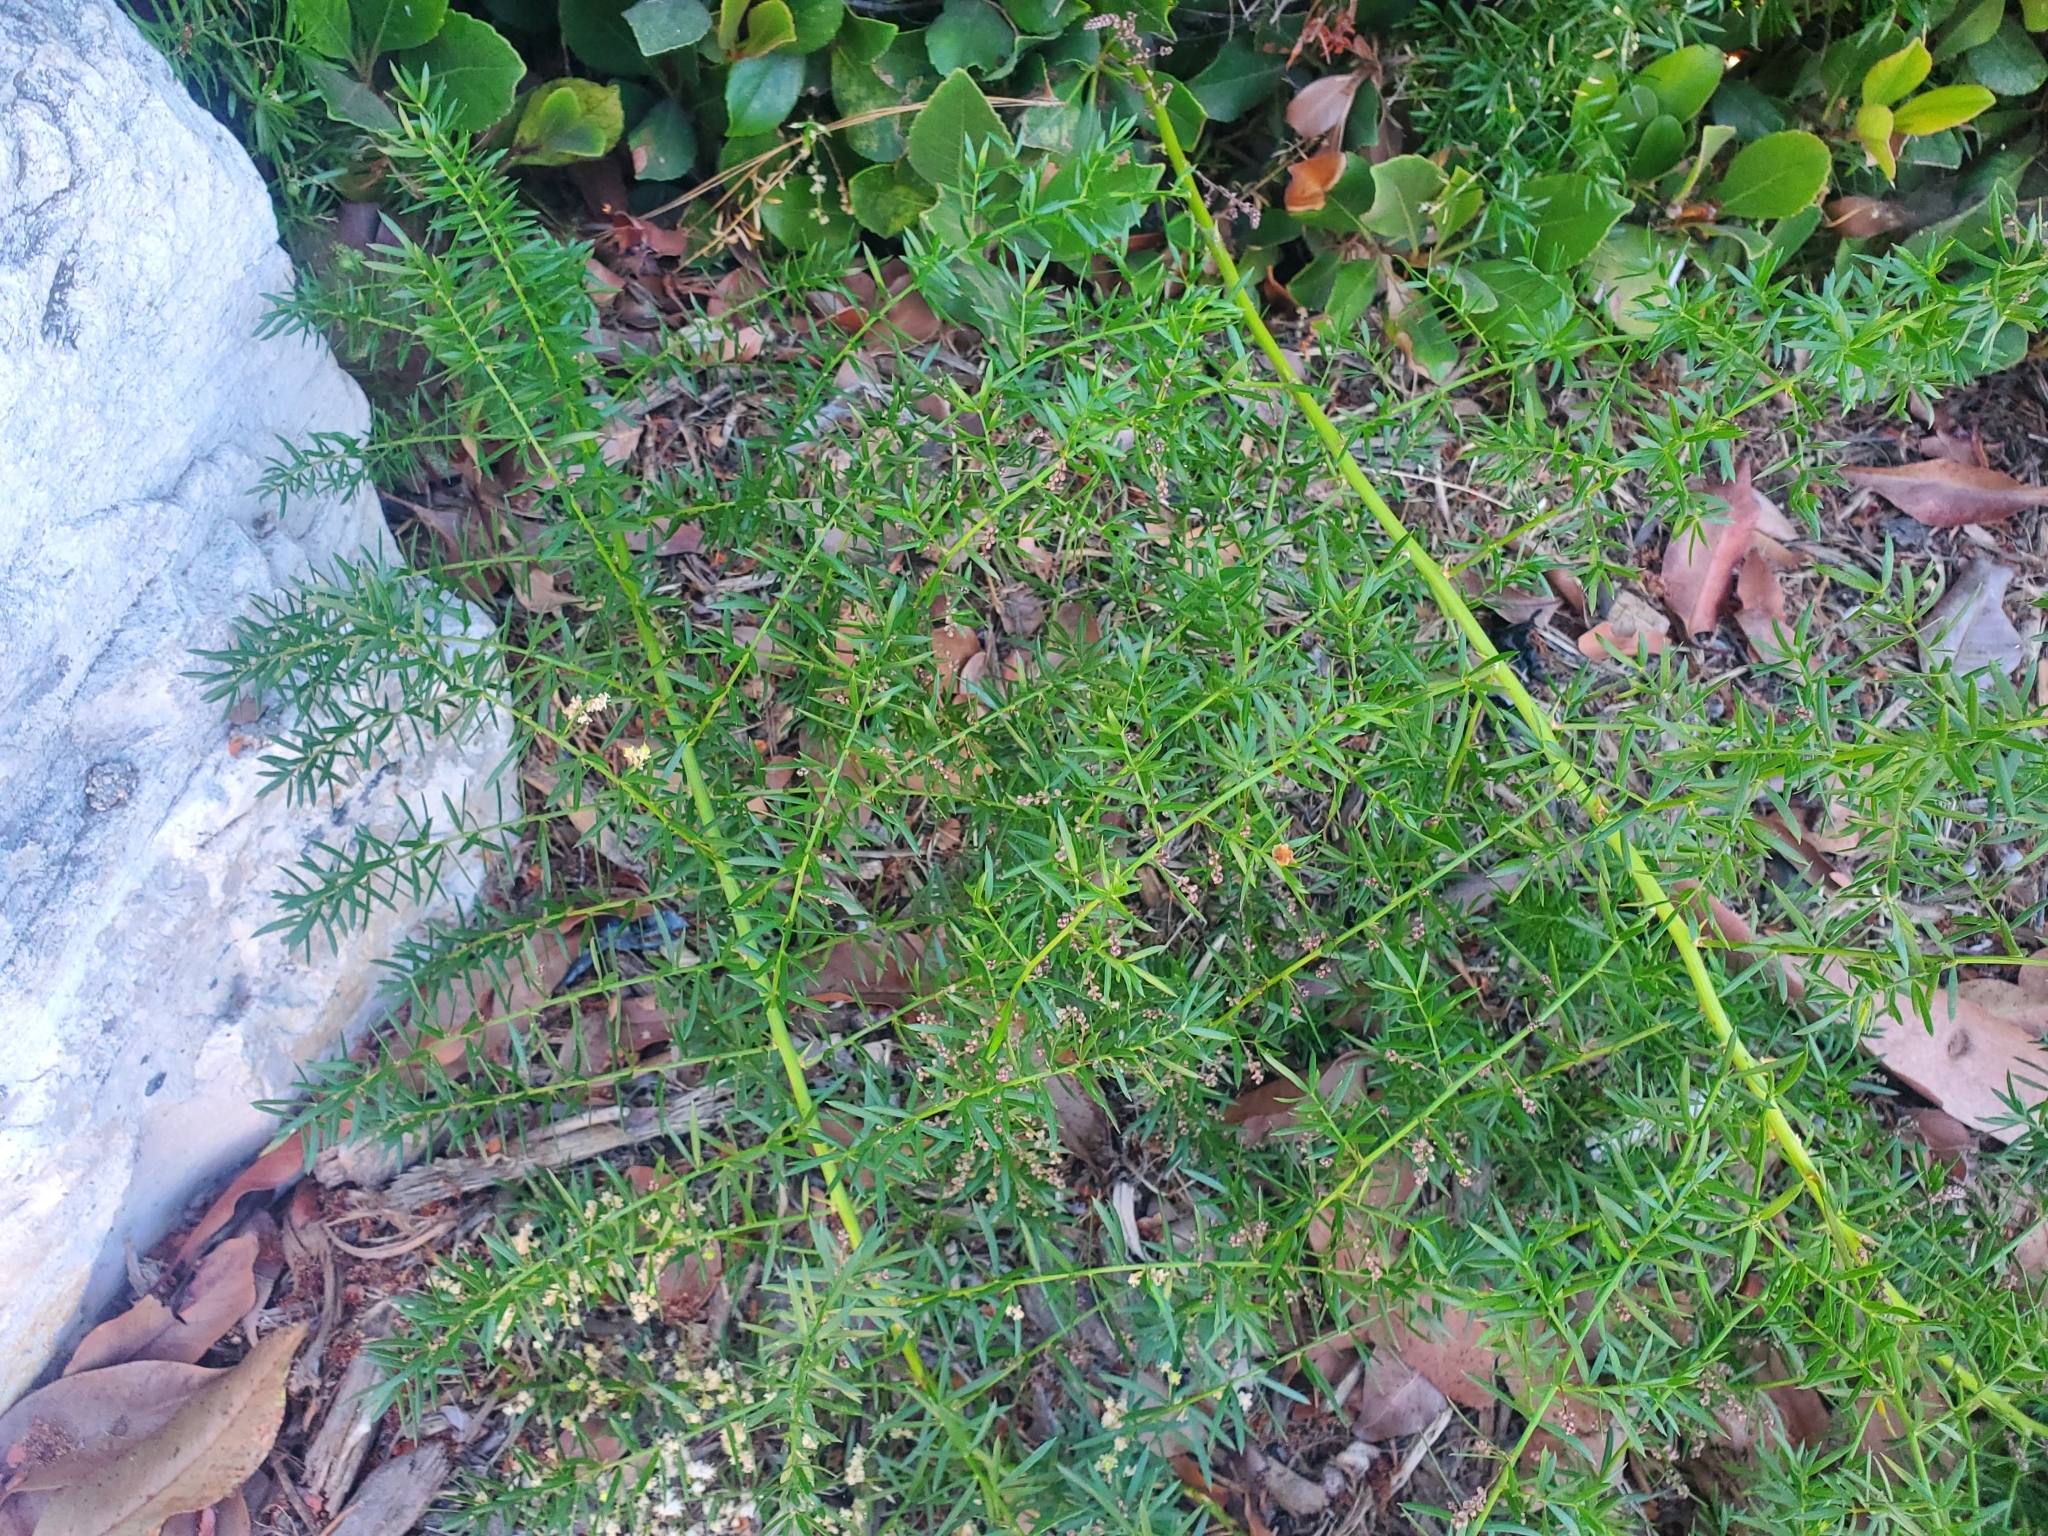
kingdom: Plantae
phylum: Tracheophyta
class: Liliopsida
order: Asparagales
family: Asparagaceae
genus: Asparagus
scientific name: Asparagus aethiopicus
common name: Sprenger's asparagus fern
